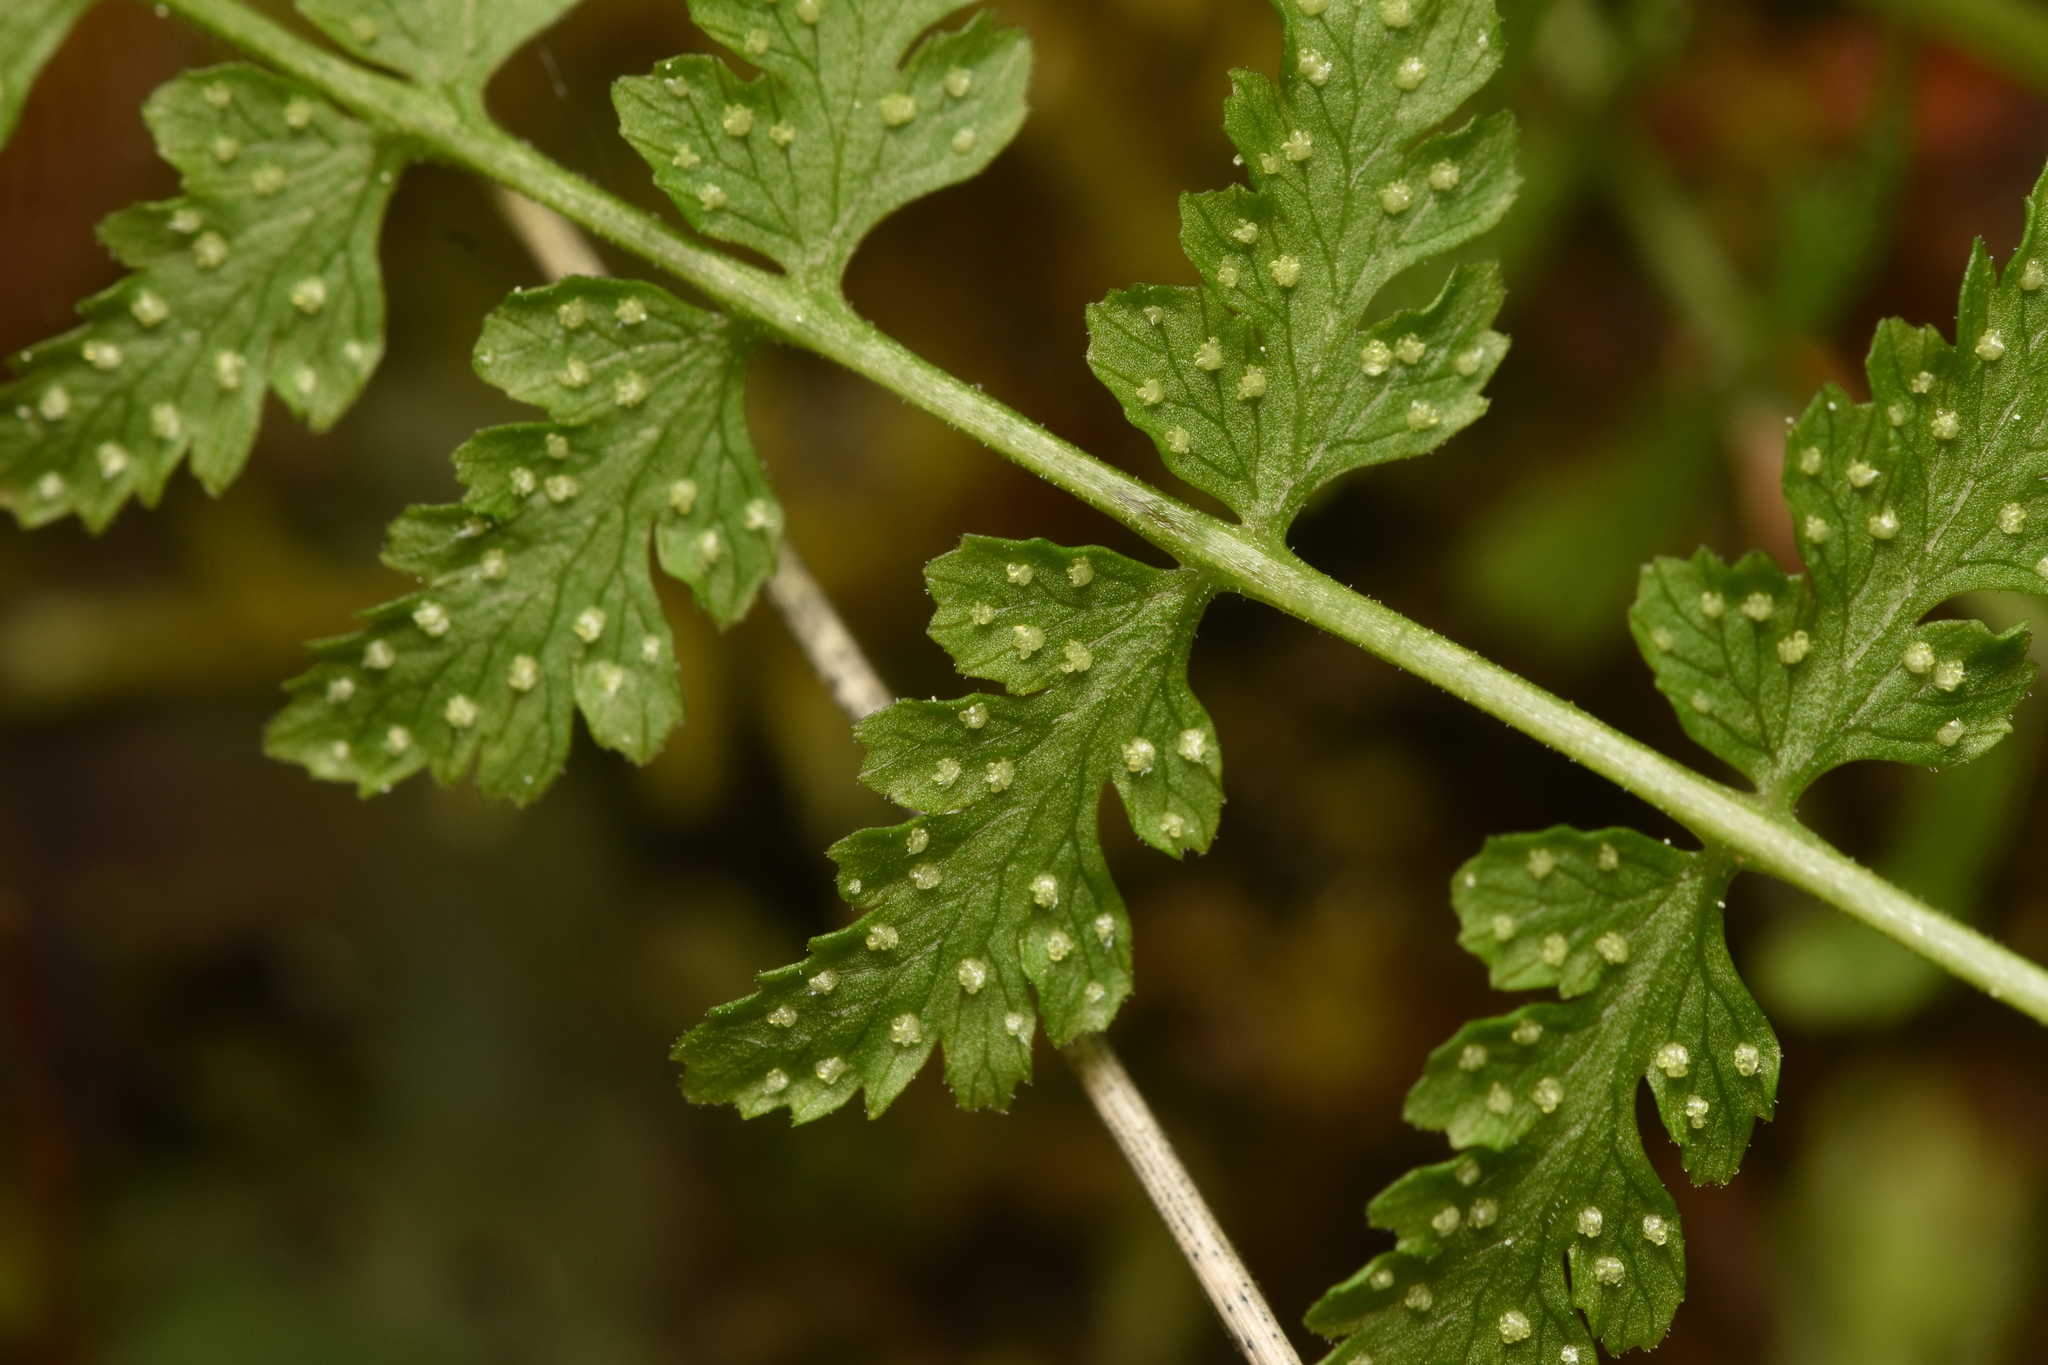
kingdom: Plantae
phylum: Tracheophyta
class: Polypodiopsida
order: Polypodiales
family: Cystopteridaceae
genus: Cystopteris
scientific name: Cystopteris fragilis
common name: Brittle bladder fern
